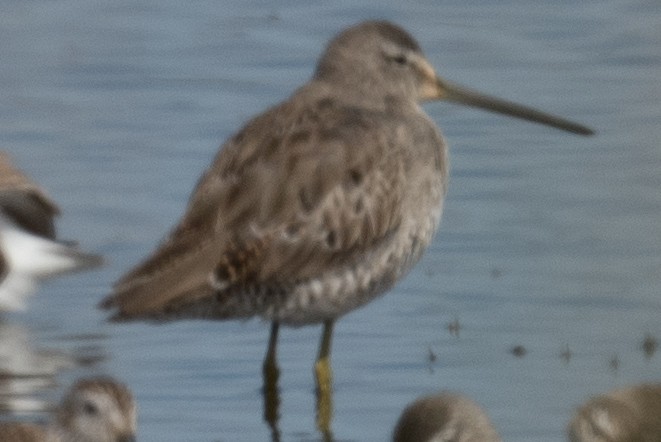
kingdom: Animalia
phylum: Chordata
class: Aves
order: Charadriiformes
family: Scolopacidae
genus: Limnodromus
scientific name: Limnodromus scolopaceus
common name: Long-billed dowitcher
